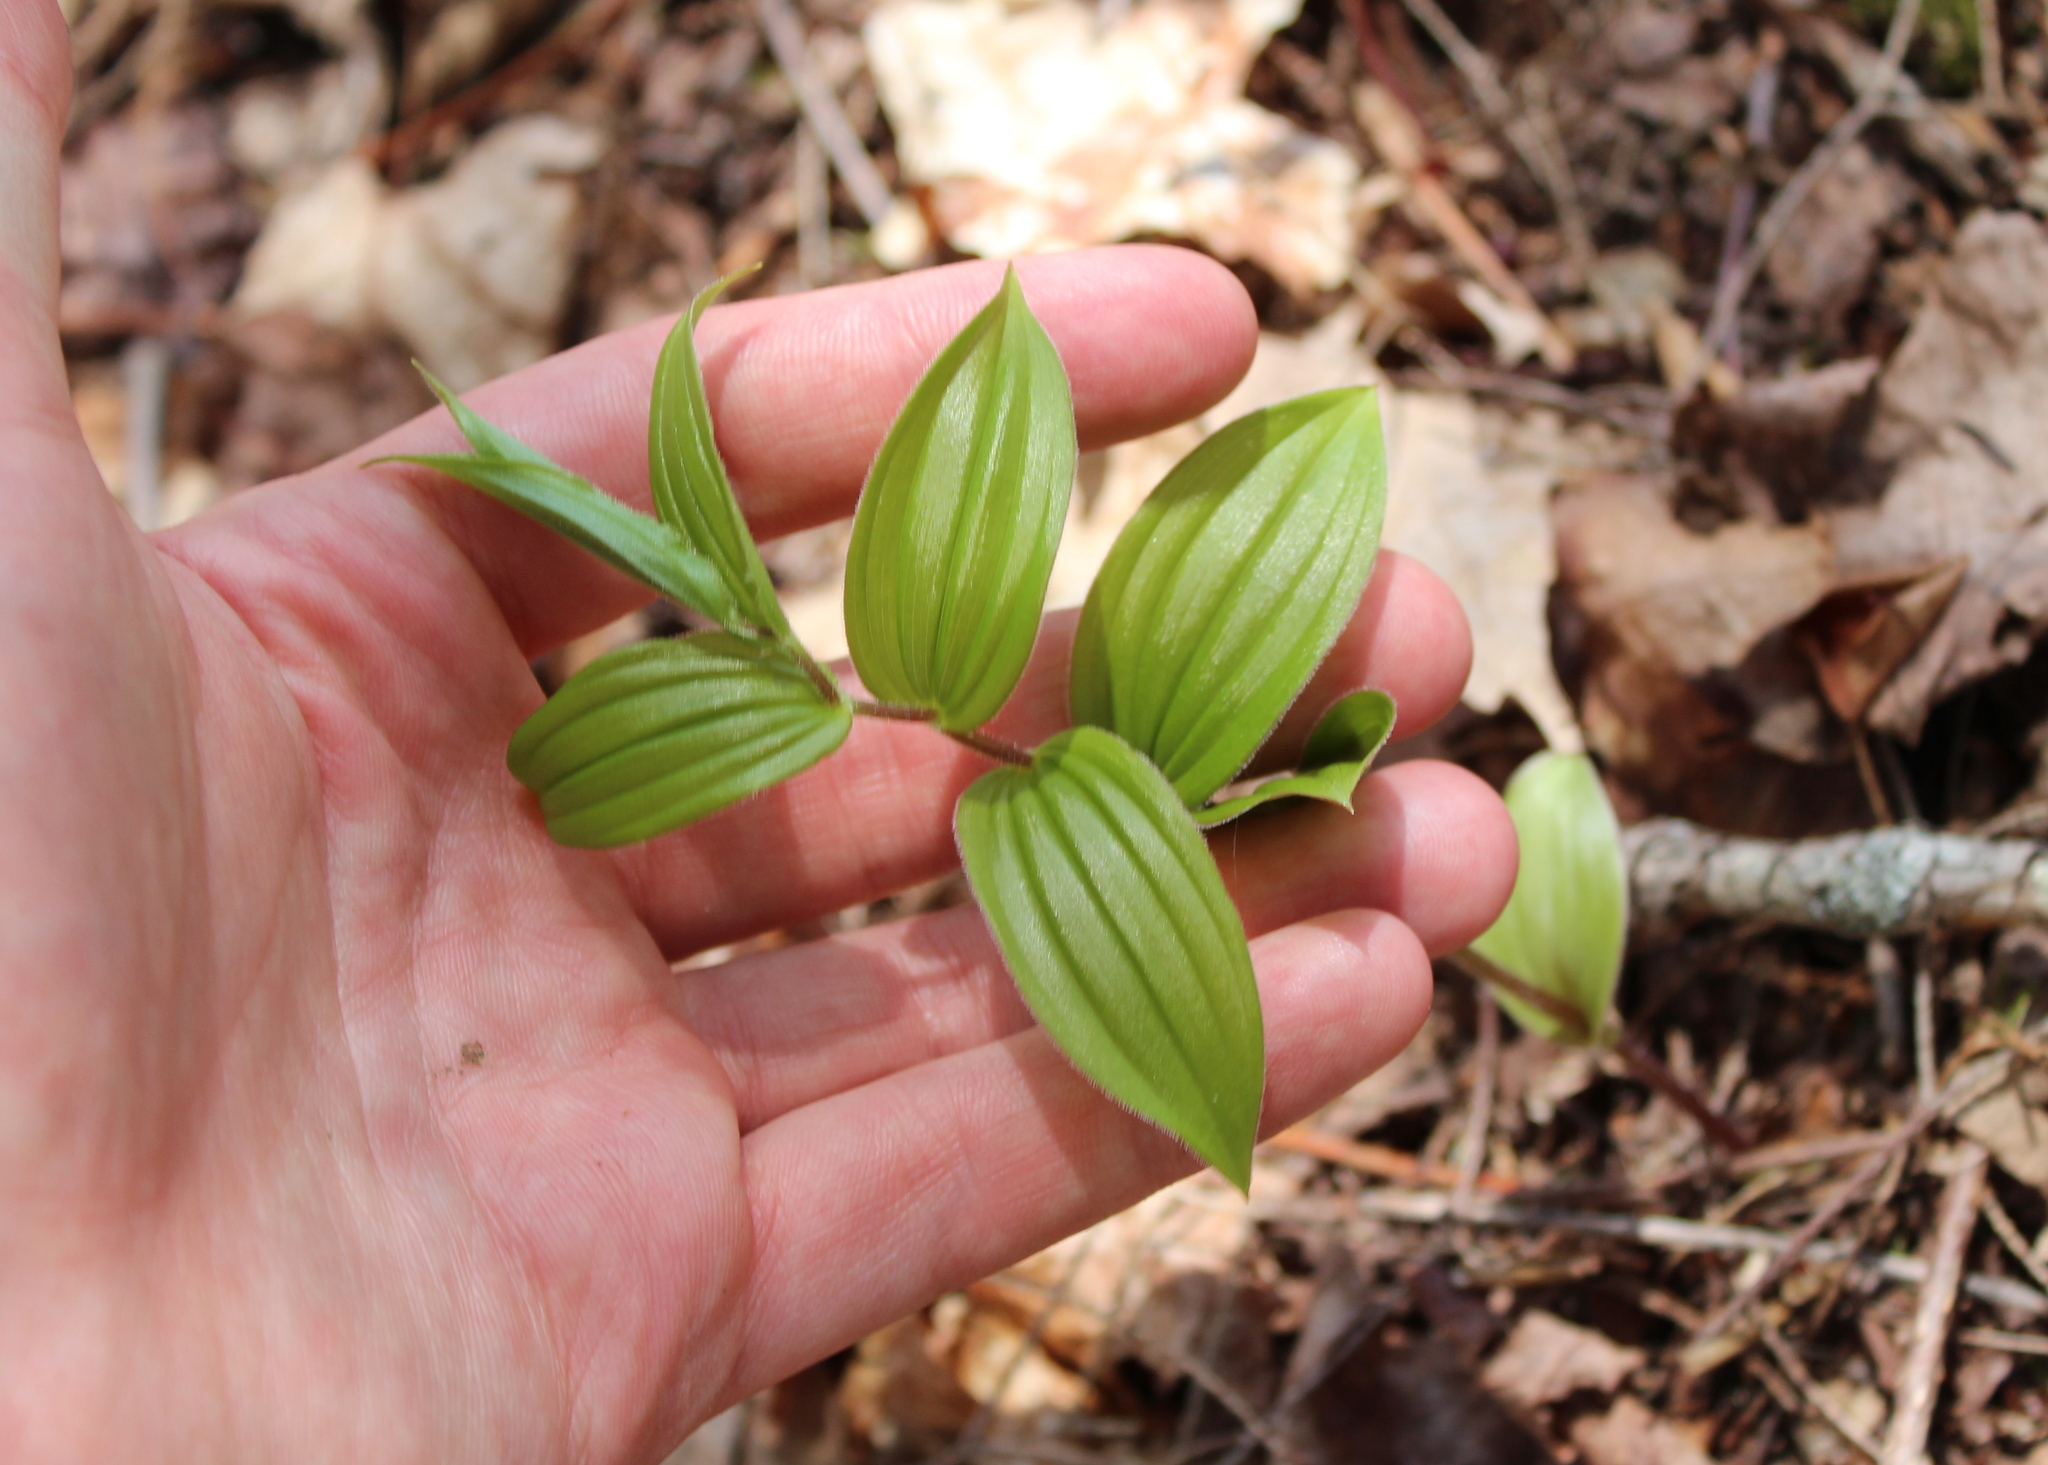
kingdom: Plantae
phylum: Tracheophyta
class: Liliopsida
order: Liliales
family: Liliaceae
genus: Streptopus
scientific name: Streptopus lanceolatus
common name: Rose mandarin
